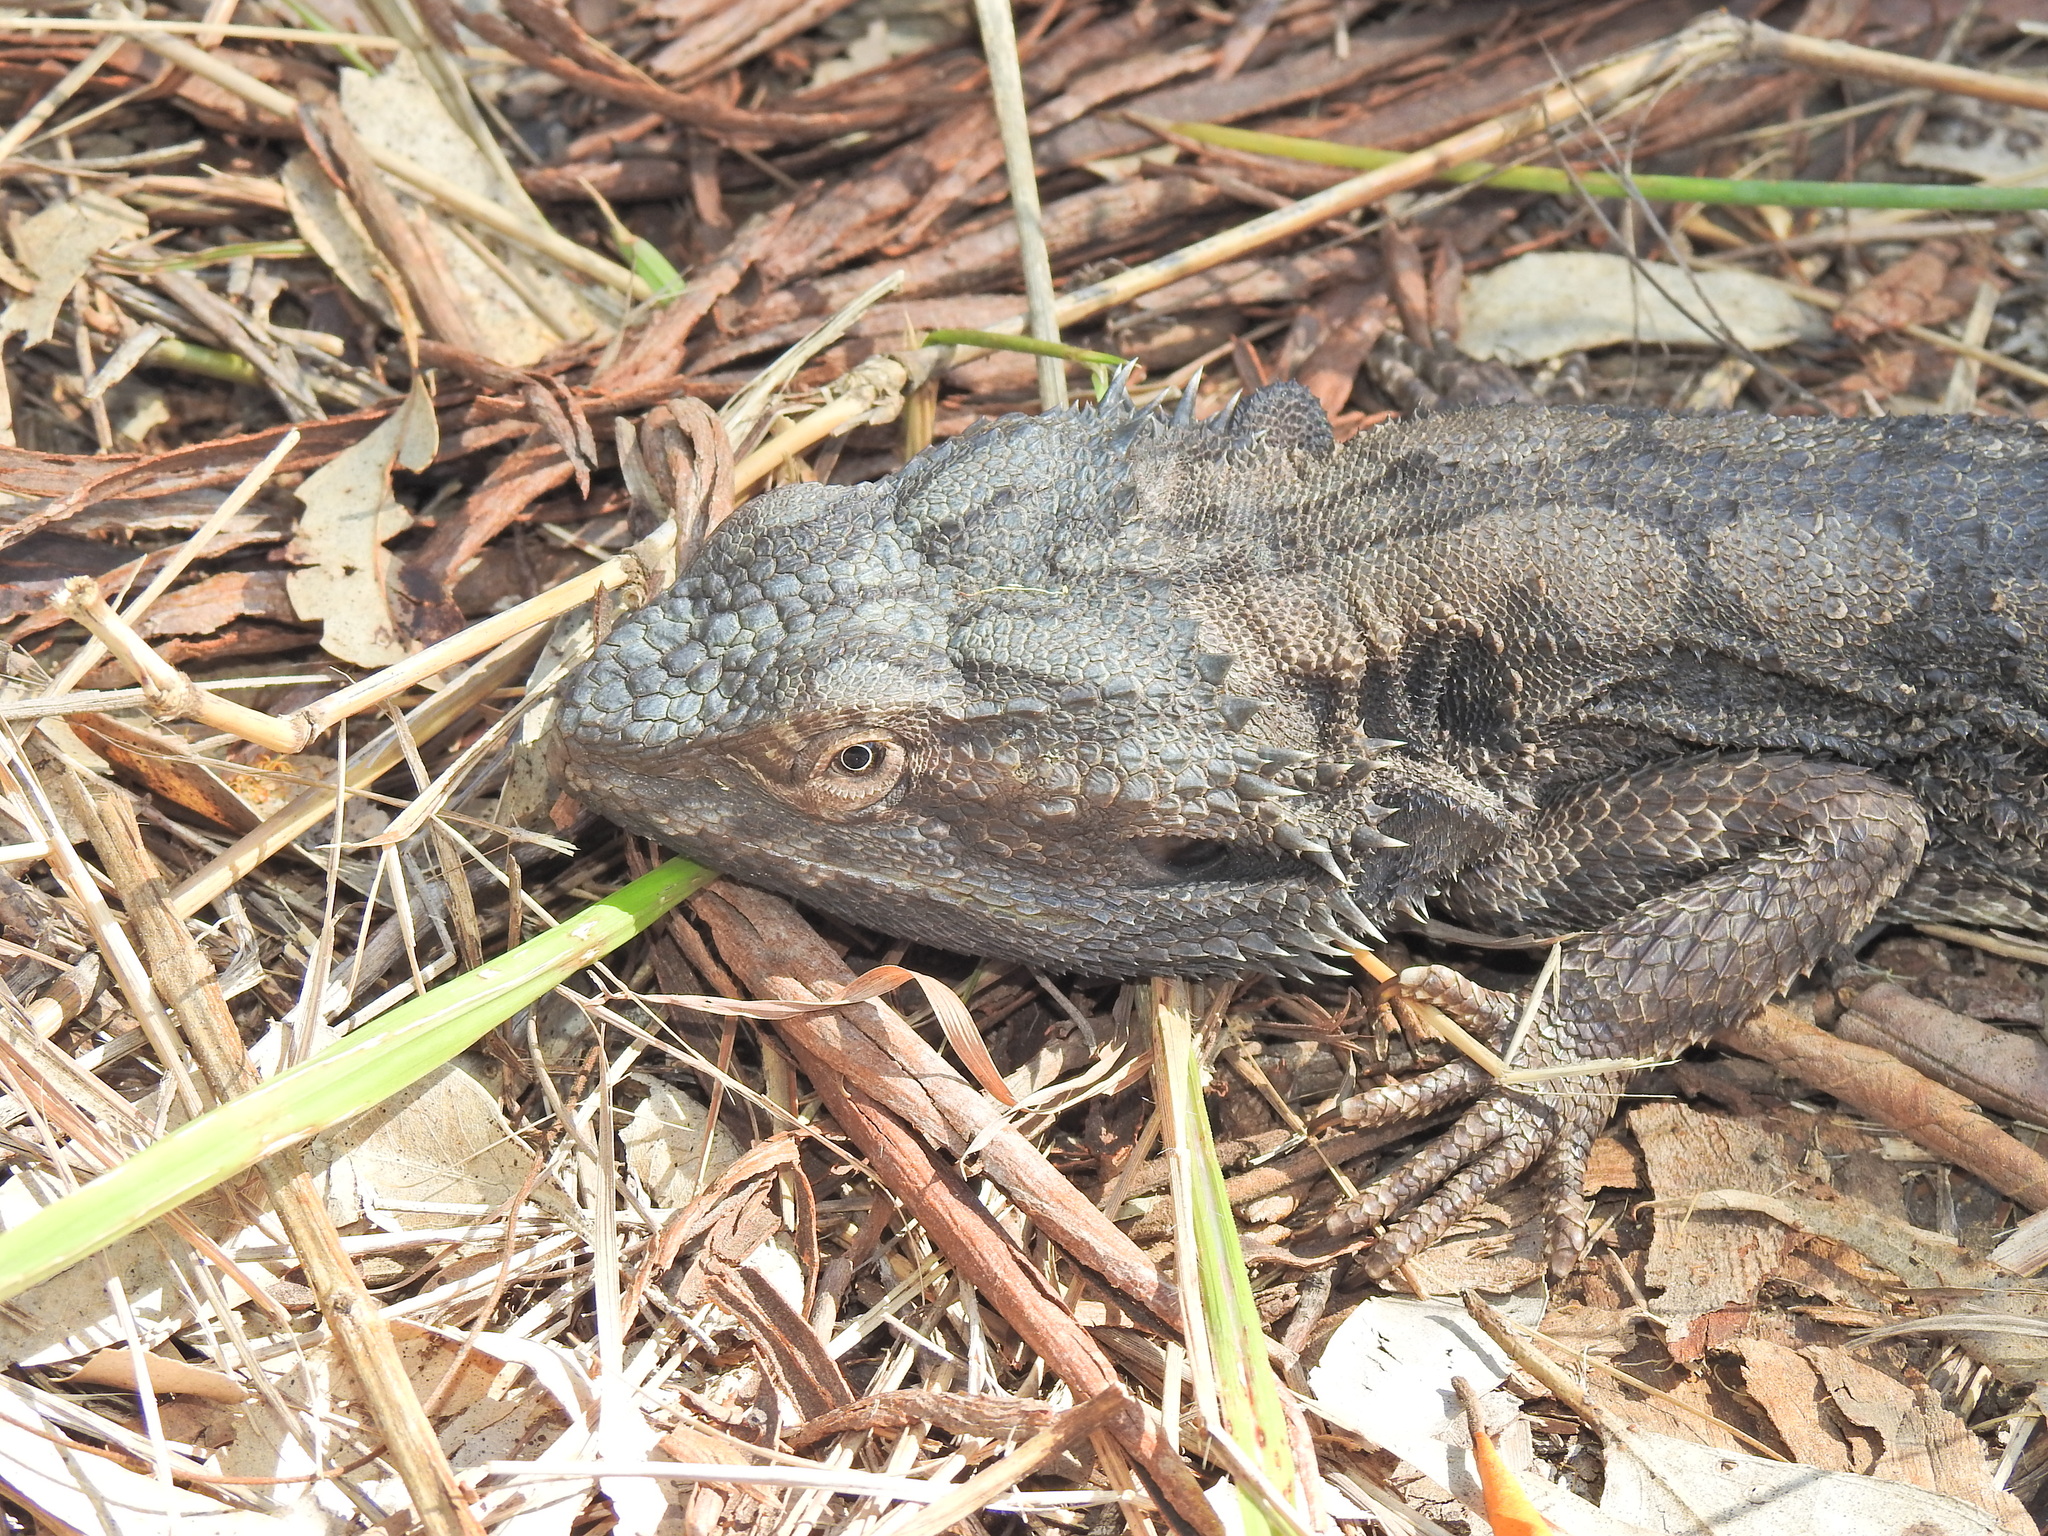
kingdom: Animalia
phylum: Chordata
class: Squamata
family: Agamidae
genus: Pogona
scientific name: Pogona barbata
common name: Bearded dragon
